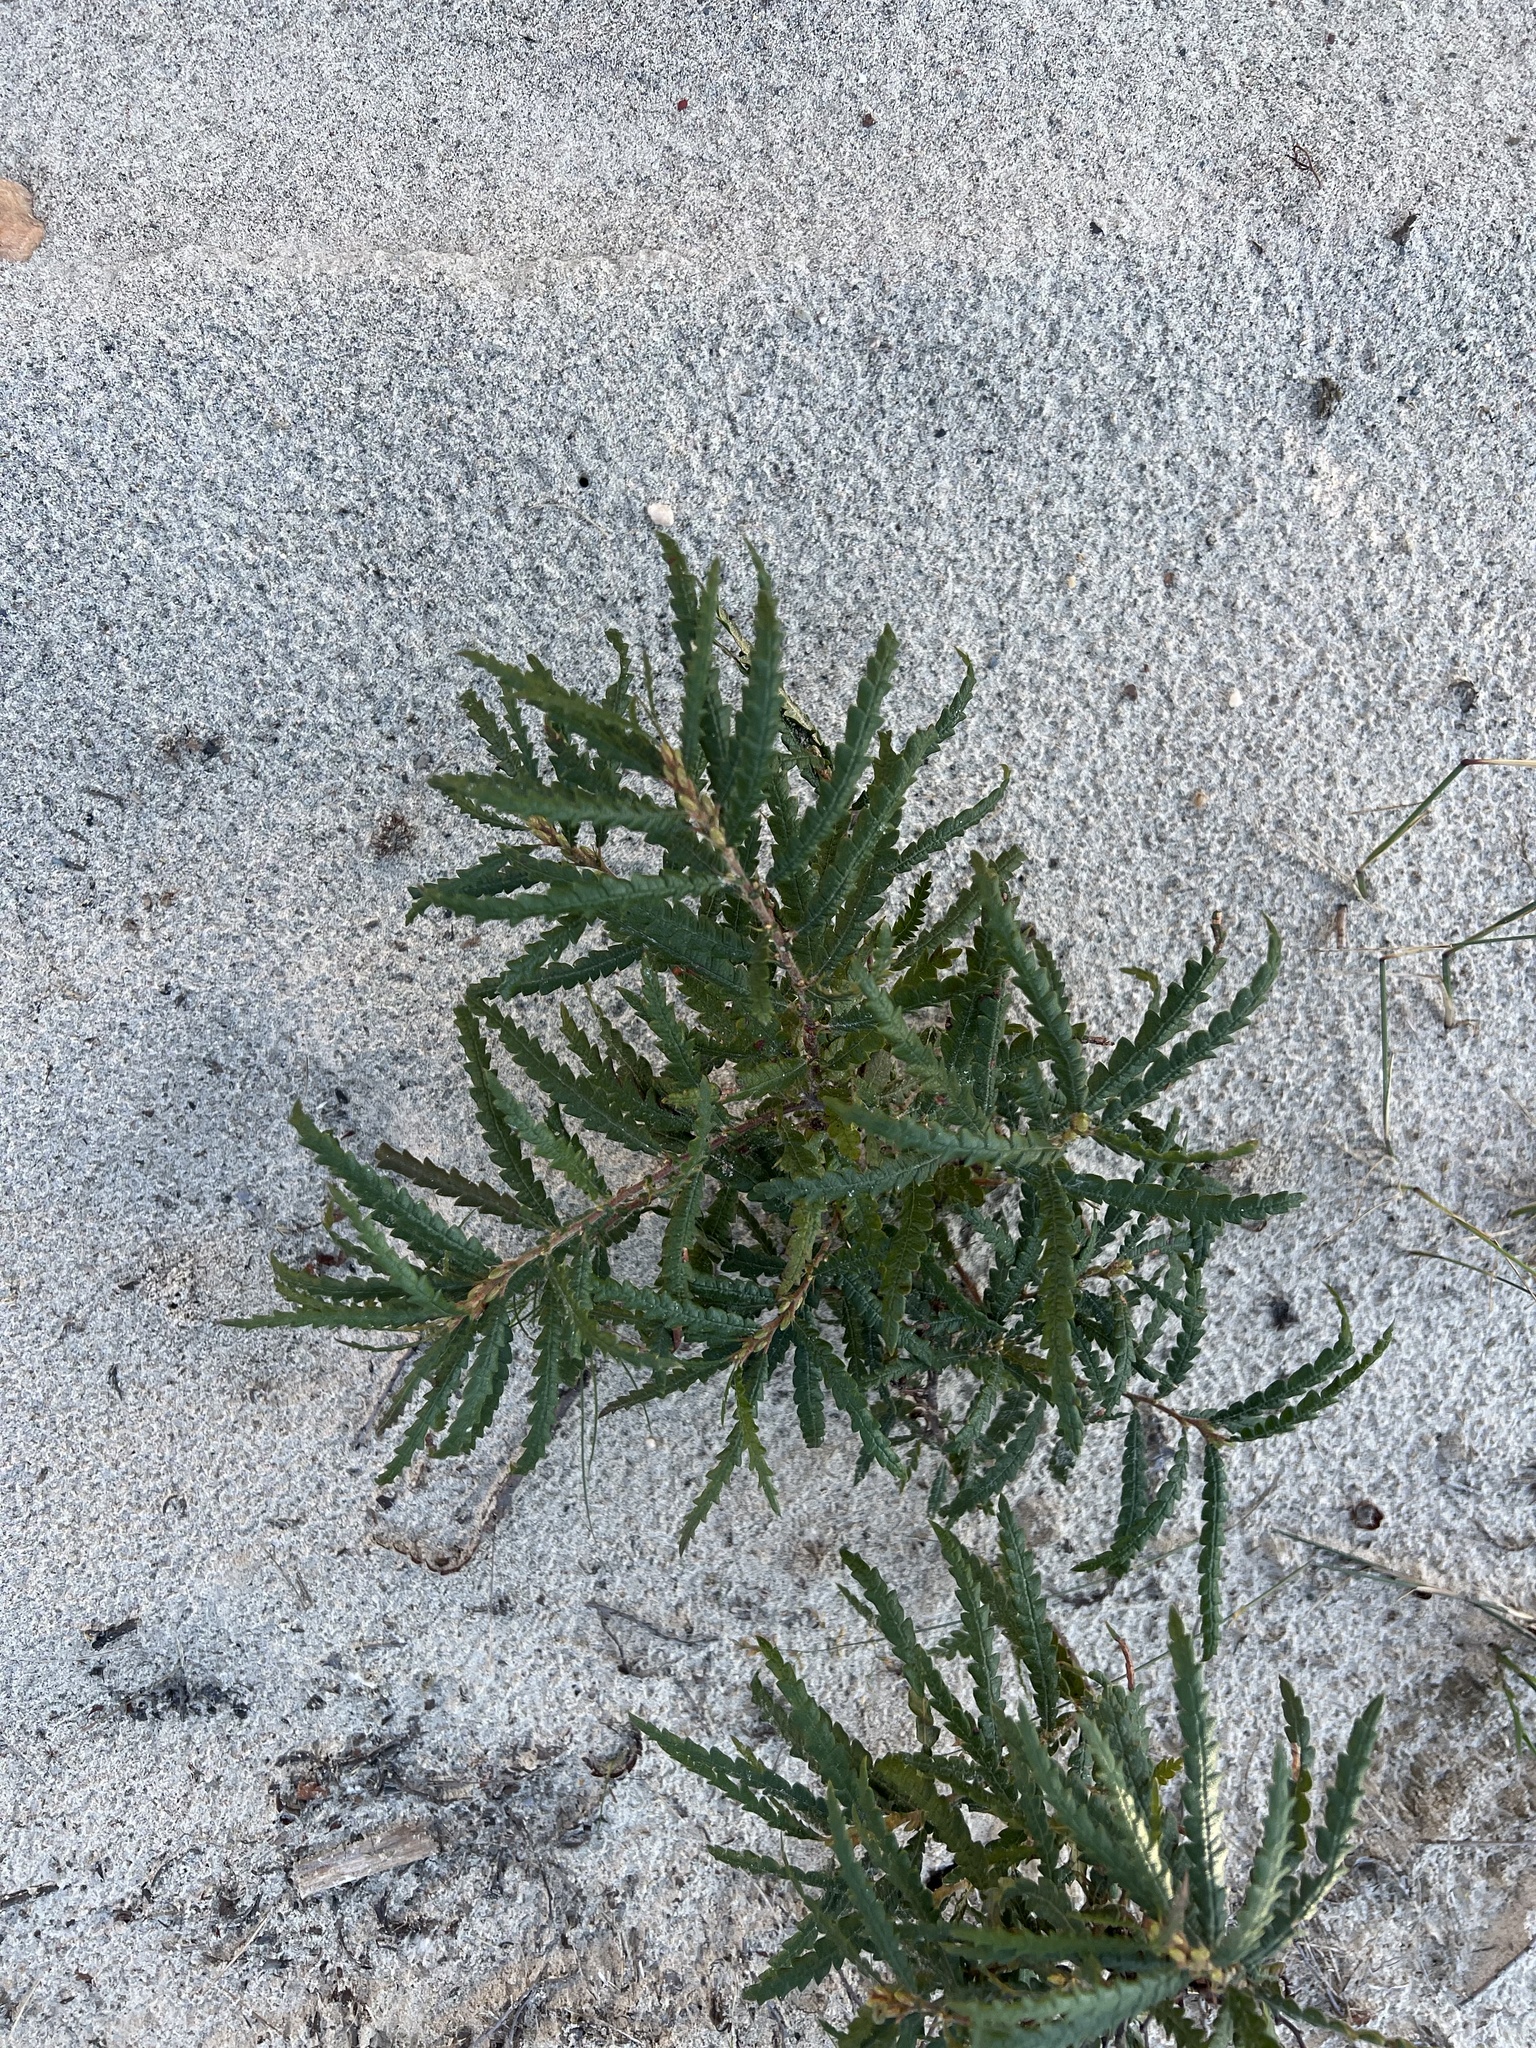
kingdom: Plantae
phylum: Tracheophyta
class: Magnoliopsida
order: Fagales
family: Myricaceae
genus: Comptonia
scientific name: Comptonia peregrina
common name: Sweet-fern
